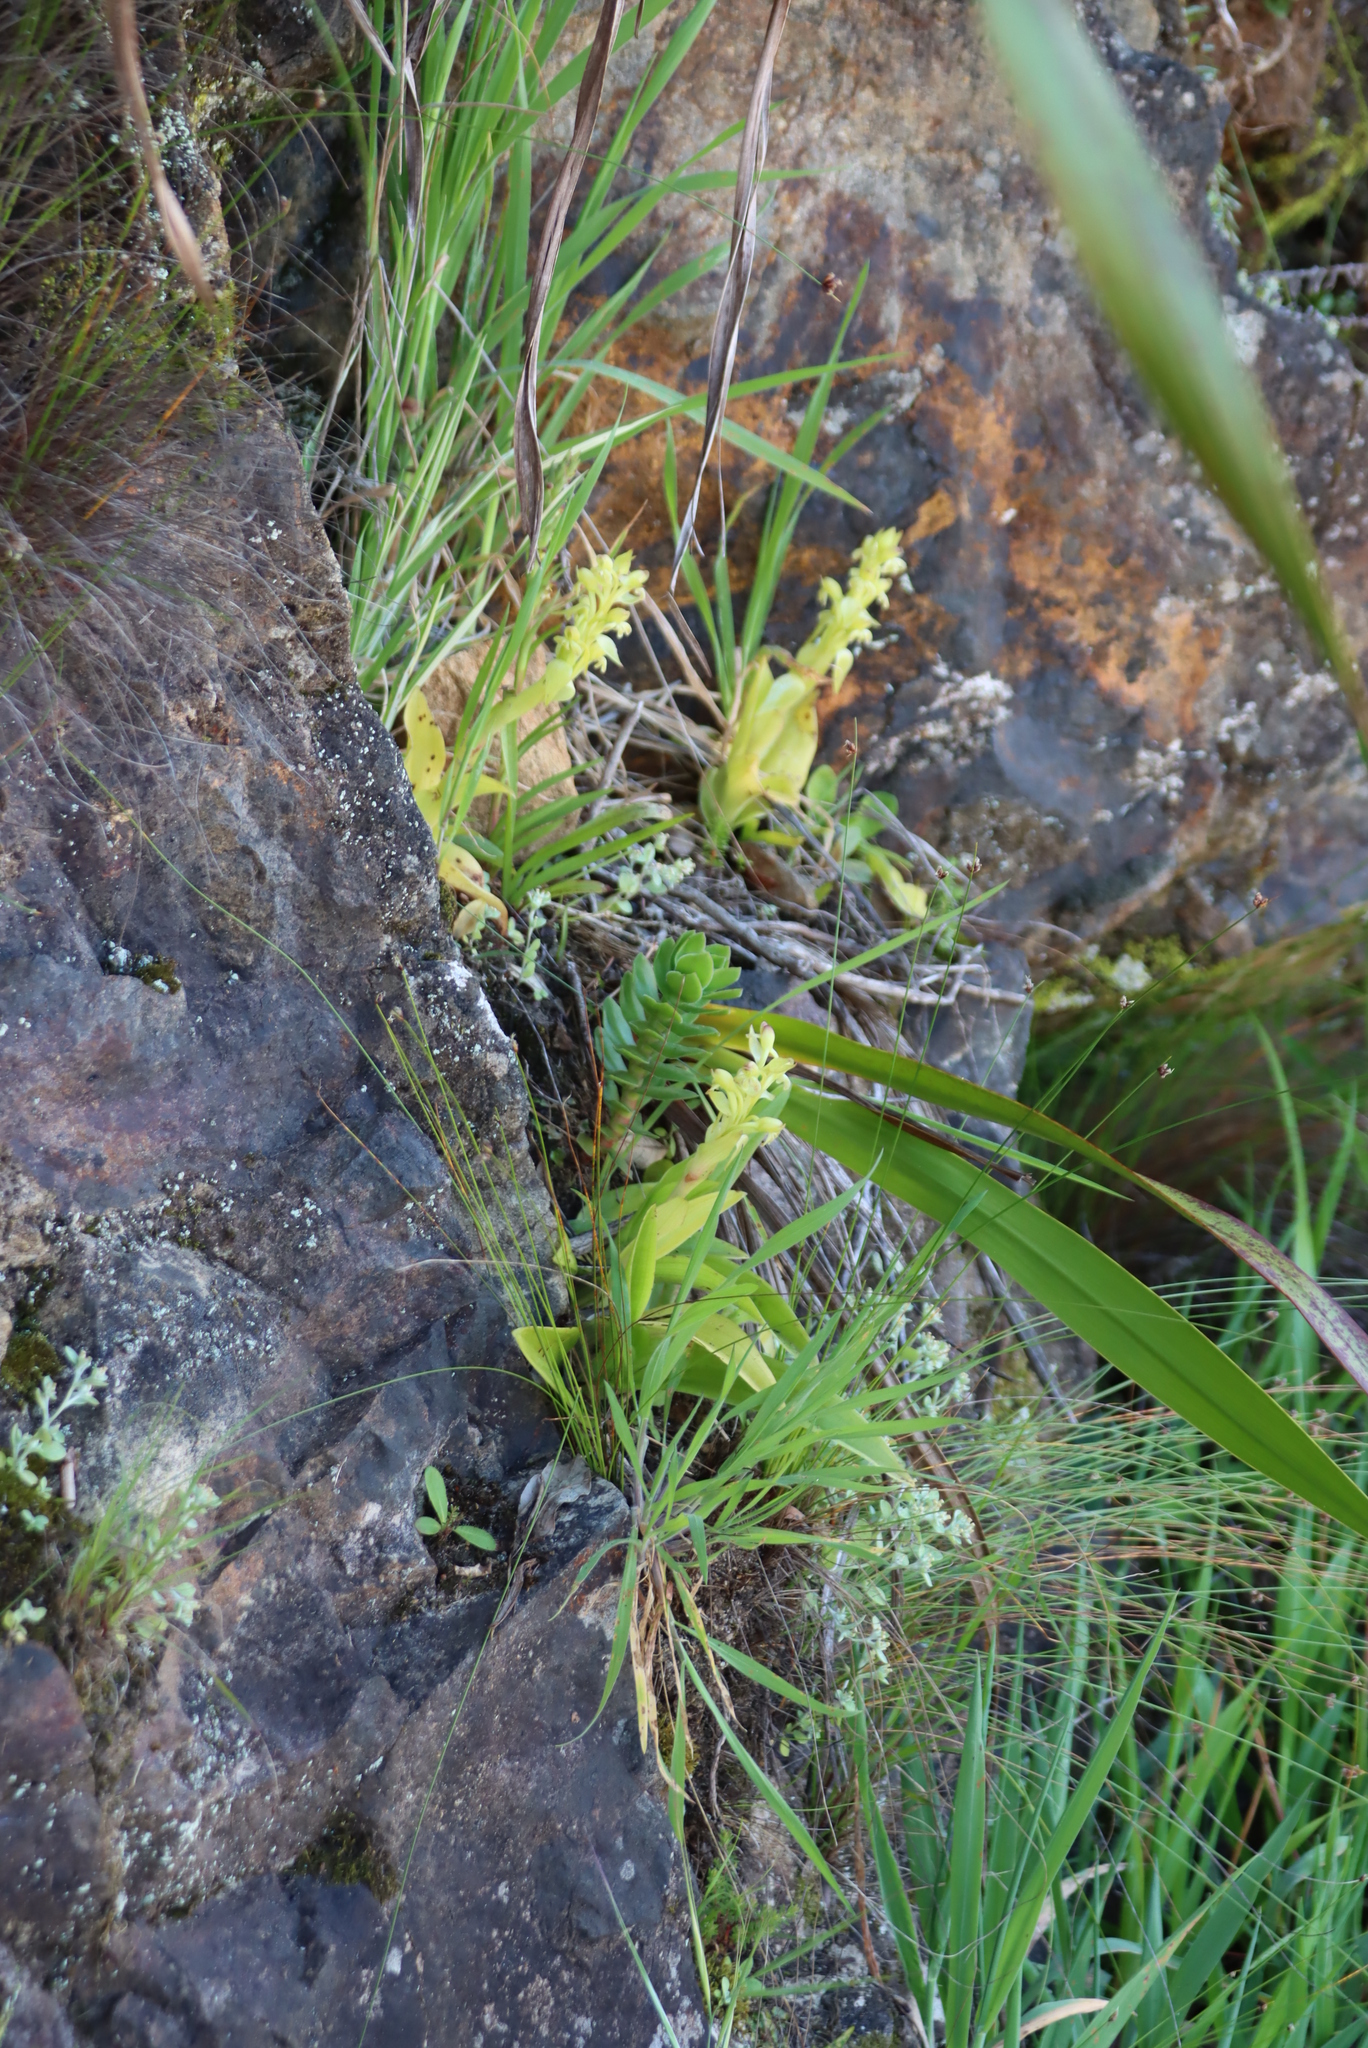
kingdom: Plantae
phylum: Tracheophyta
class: Liliopsida
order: Asparagales
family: Orchidaceae
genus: Satyrium
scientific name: Satyrium odorum
